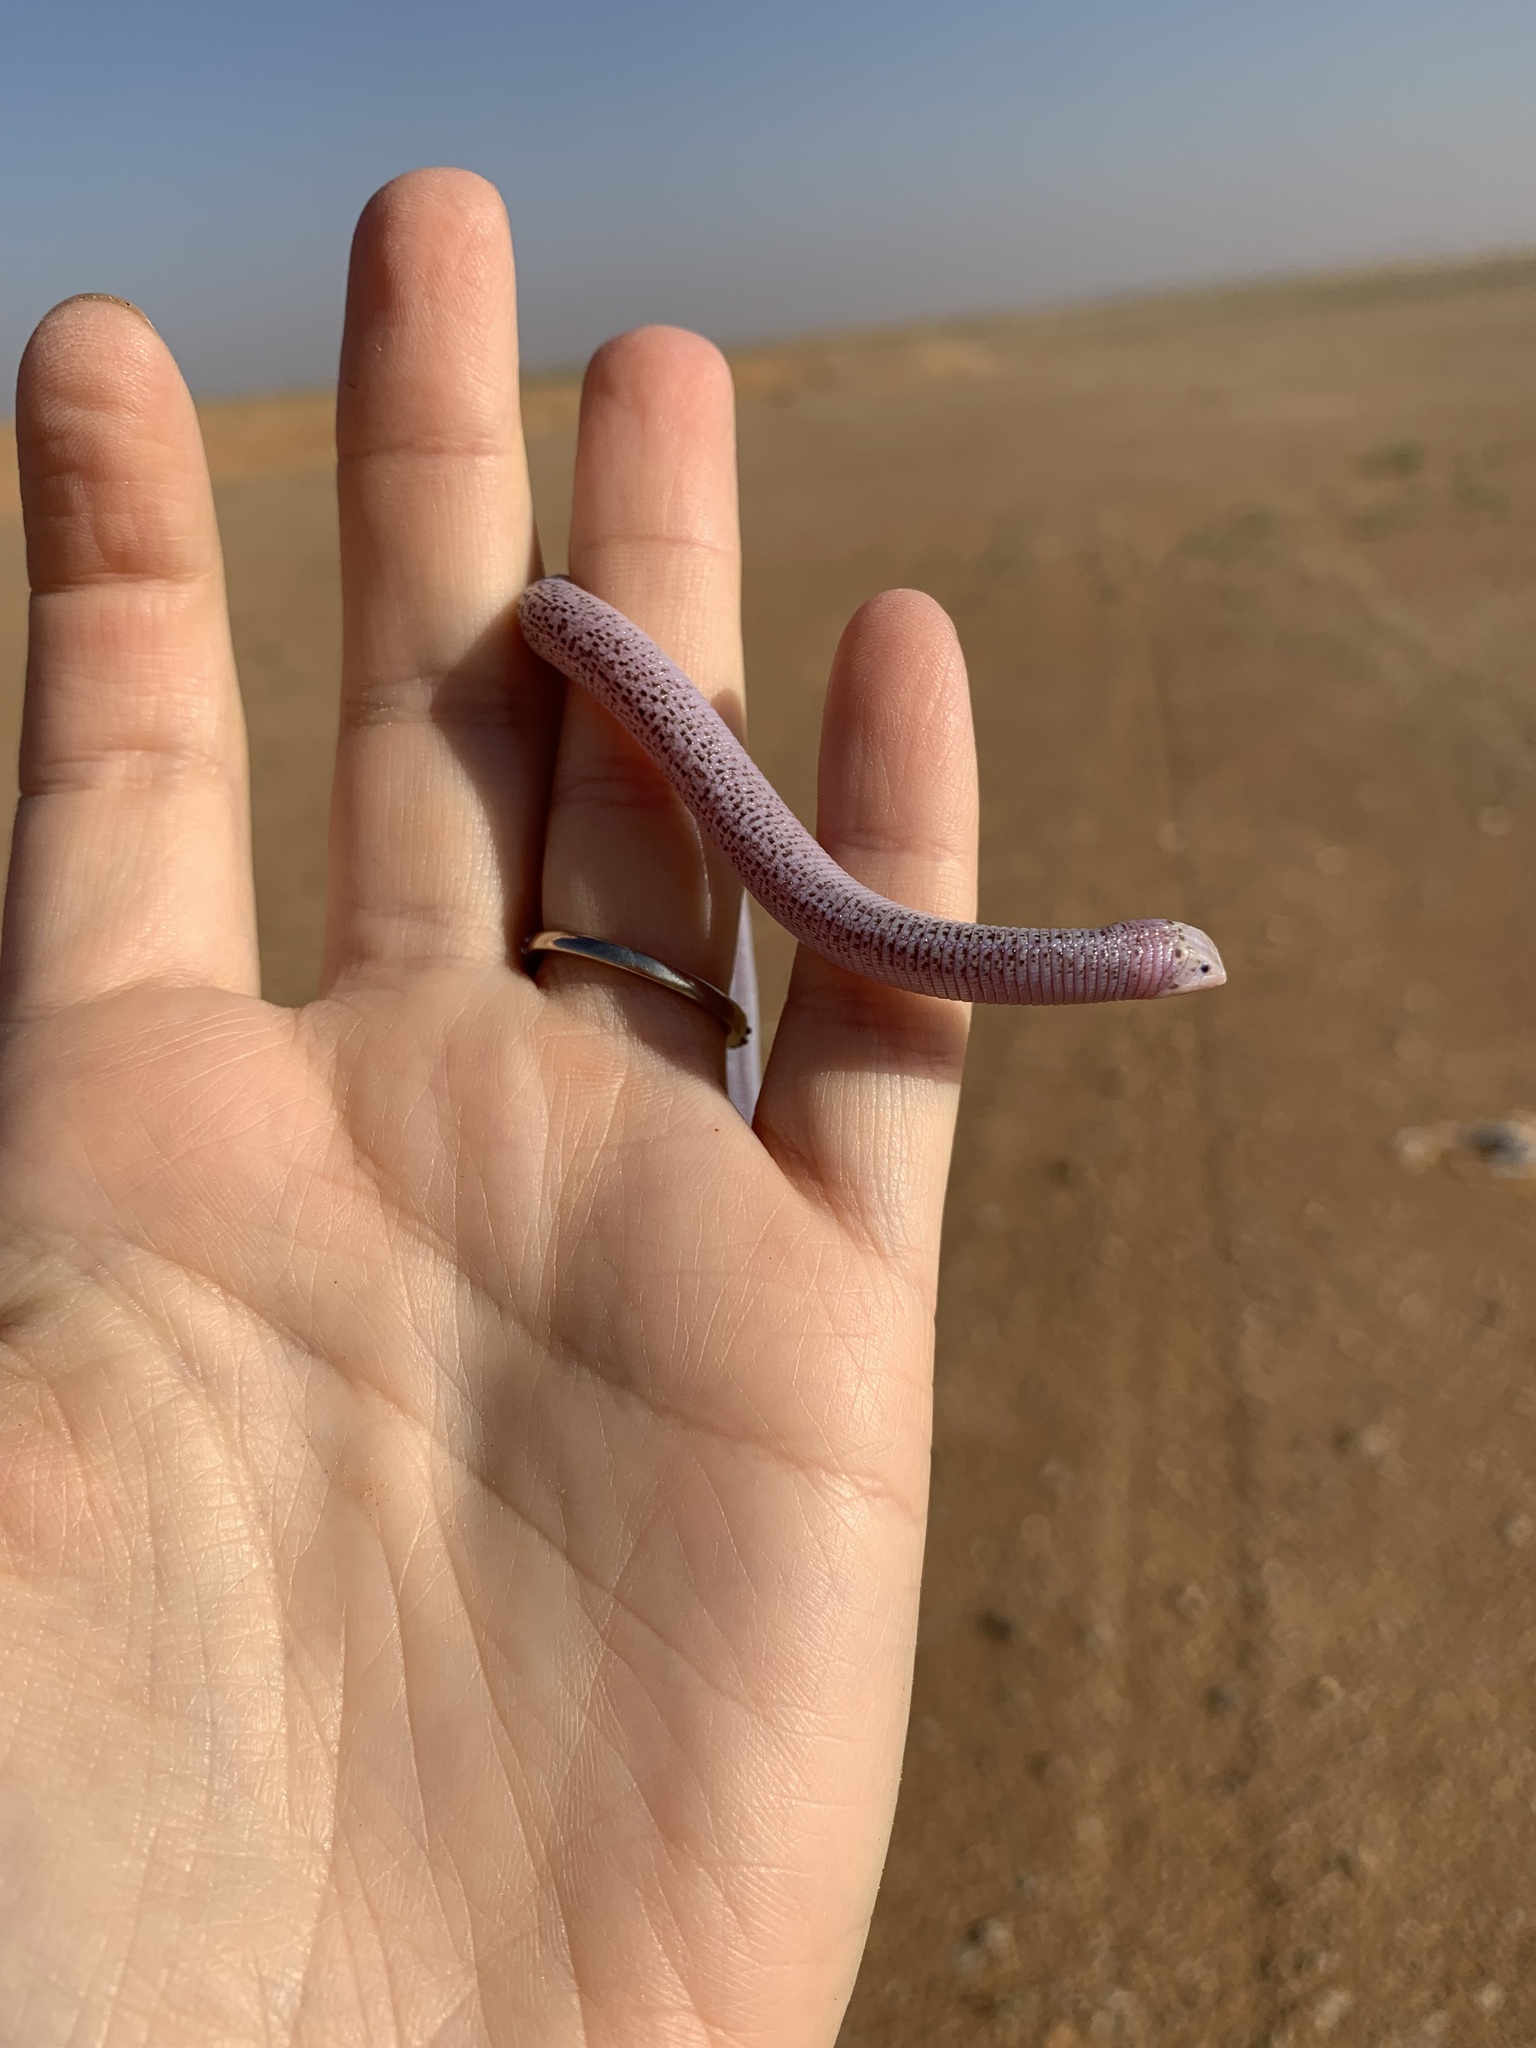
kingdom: Animalia
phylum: Chordata
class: Squamata
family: Trogonophidae
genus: Diplometopon
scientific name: Diplometopon zarudnyi
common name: Zarudnyi's worm lizard
